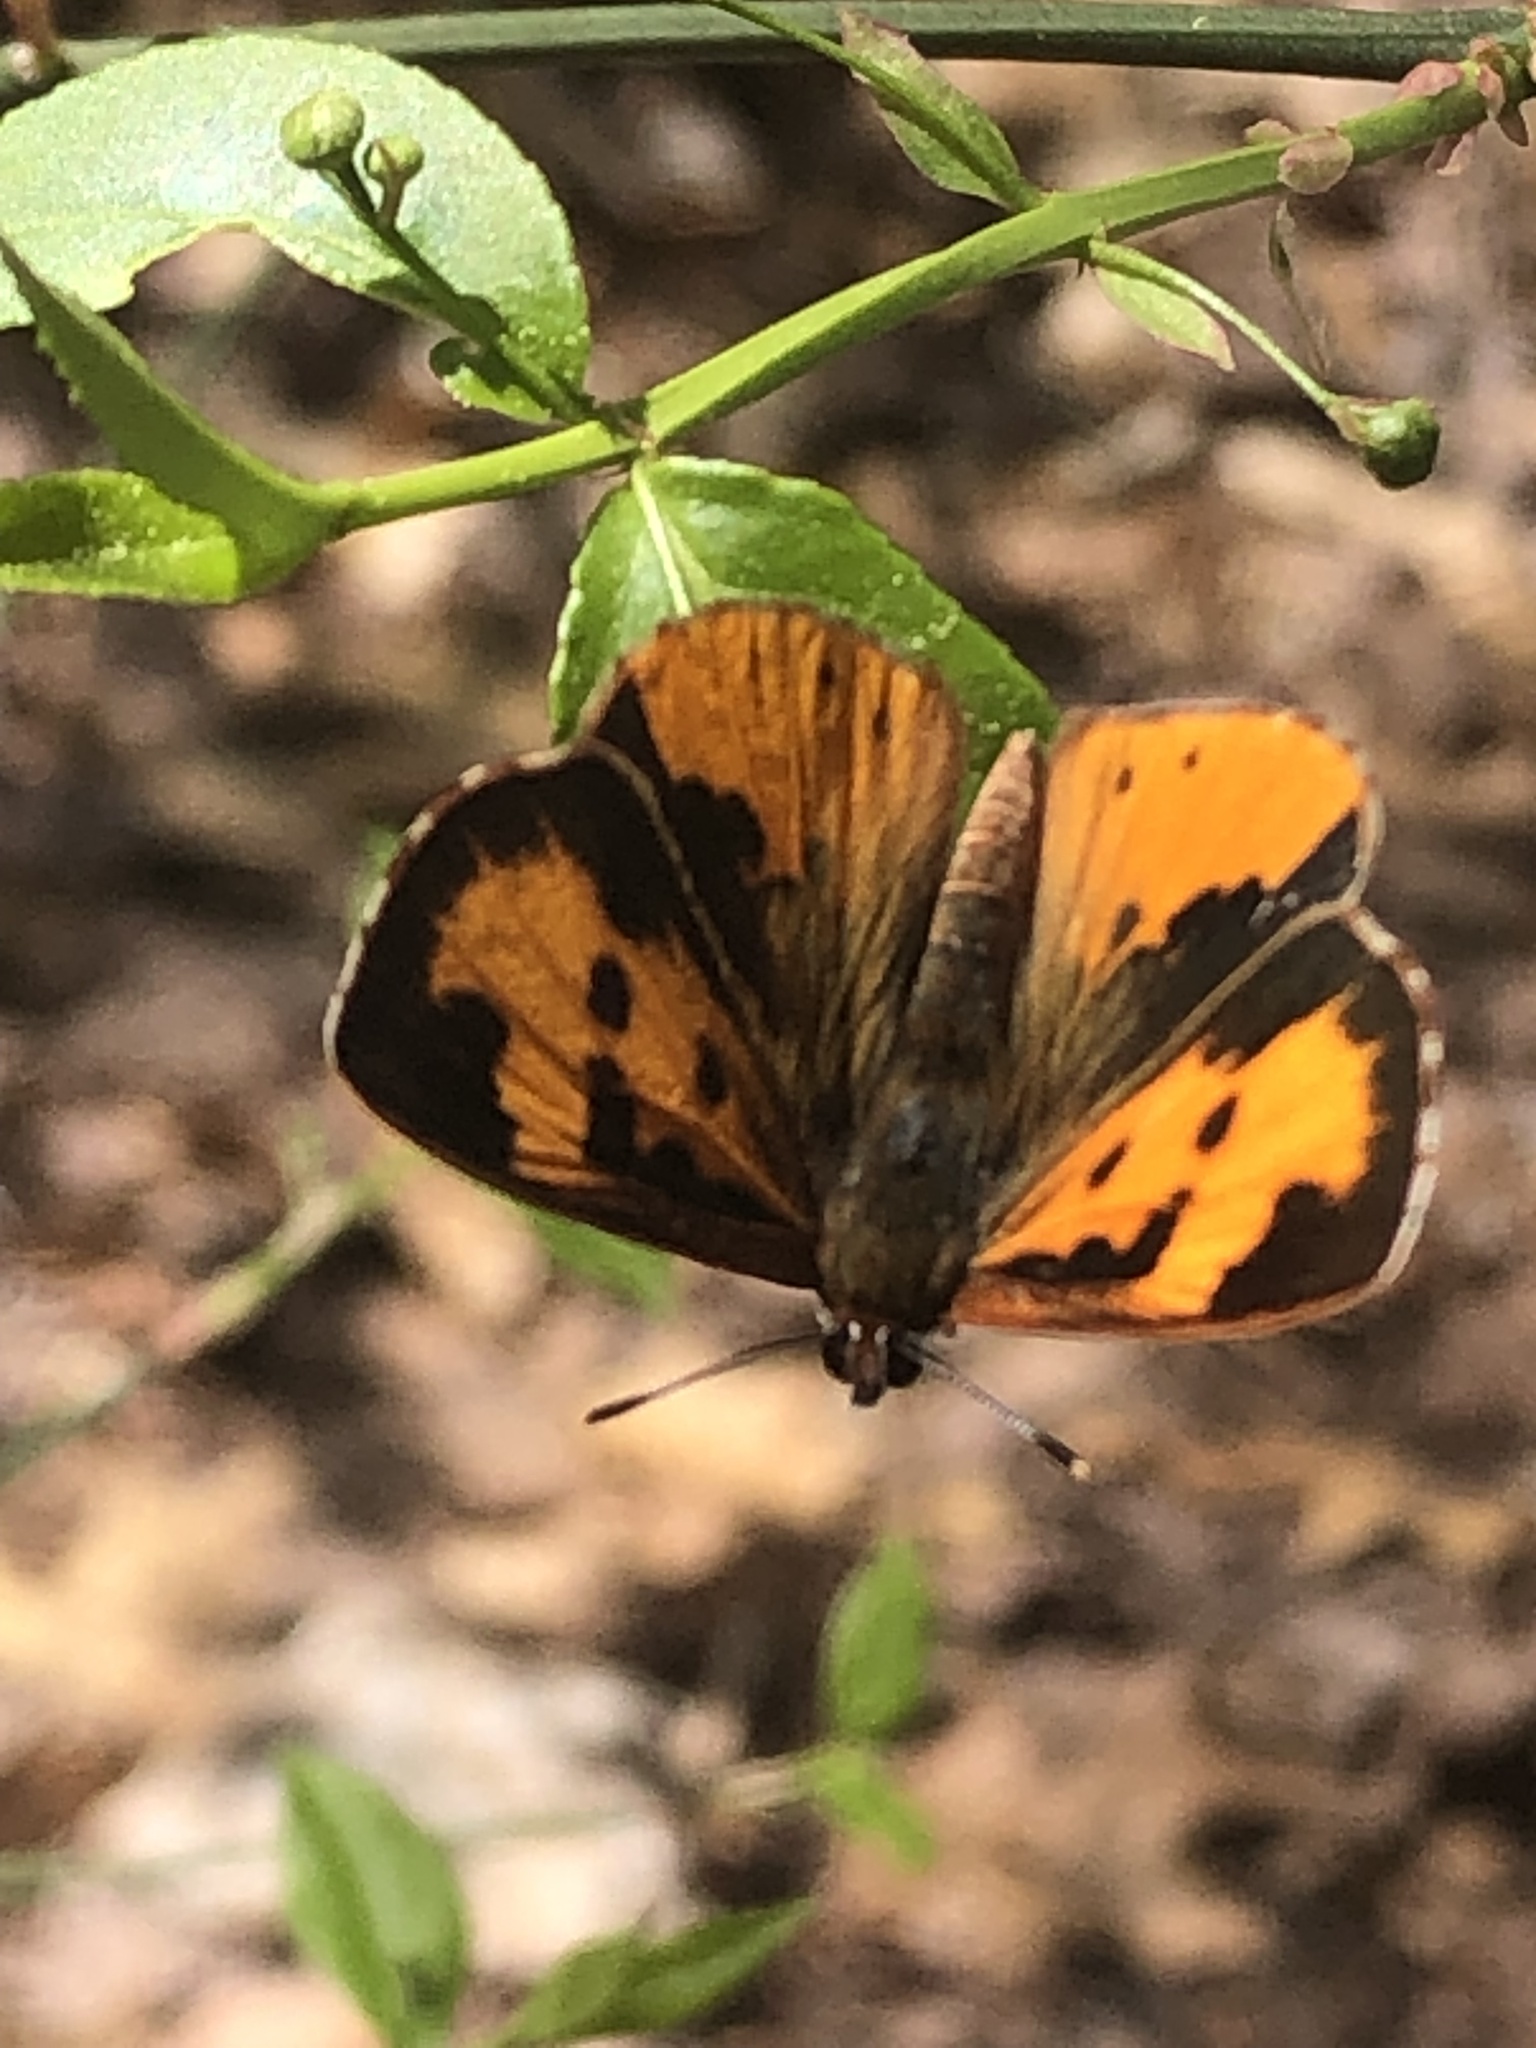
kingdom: Animalia
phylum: Arthropoda
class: Insecta
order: Lepidoptera
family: Lycaenidae
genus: Feniseca
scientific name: Feniseca tarquinius
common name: Harvester
